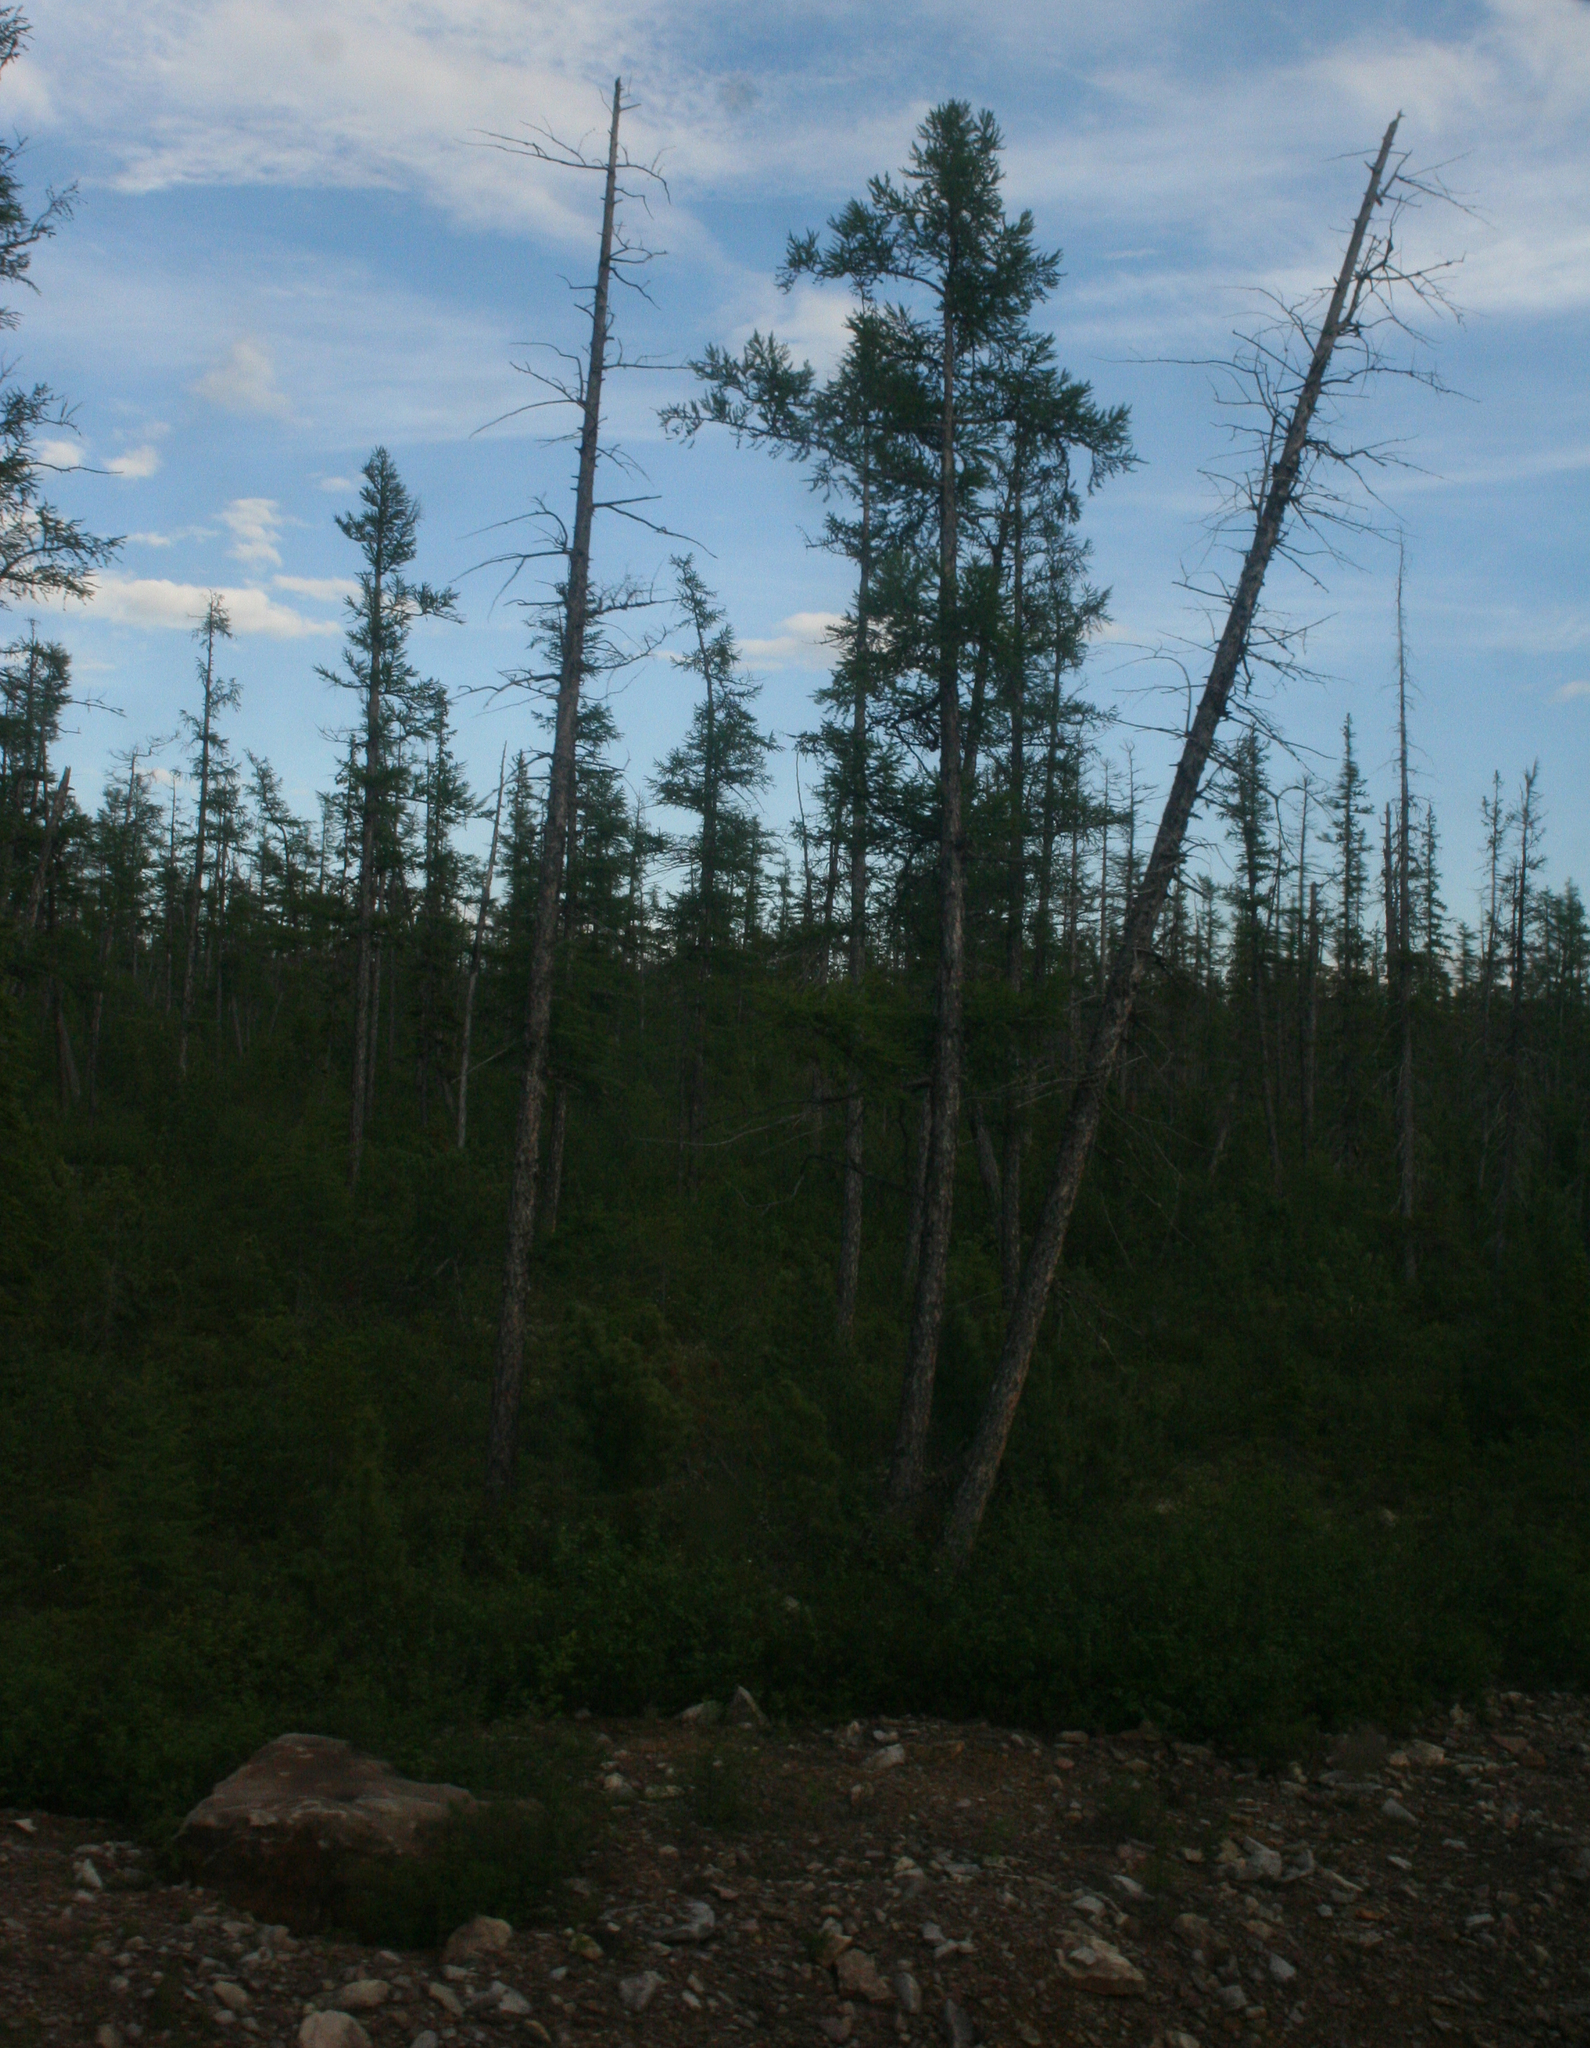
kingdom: Plantae
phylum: Tracheophyta
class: Pinopsida
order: Pinales
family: Pinaceae
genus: Larix
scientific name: Larix gmelinii
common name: Dahurian larch
